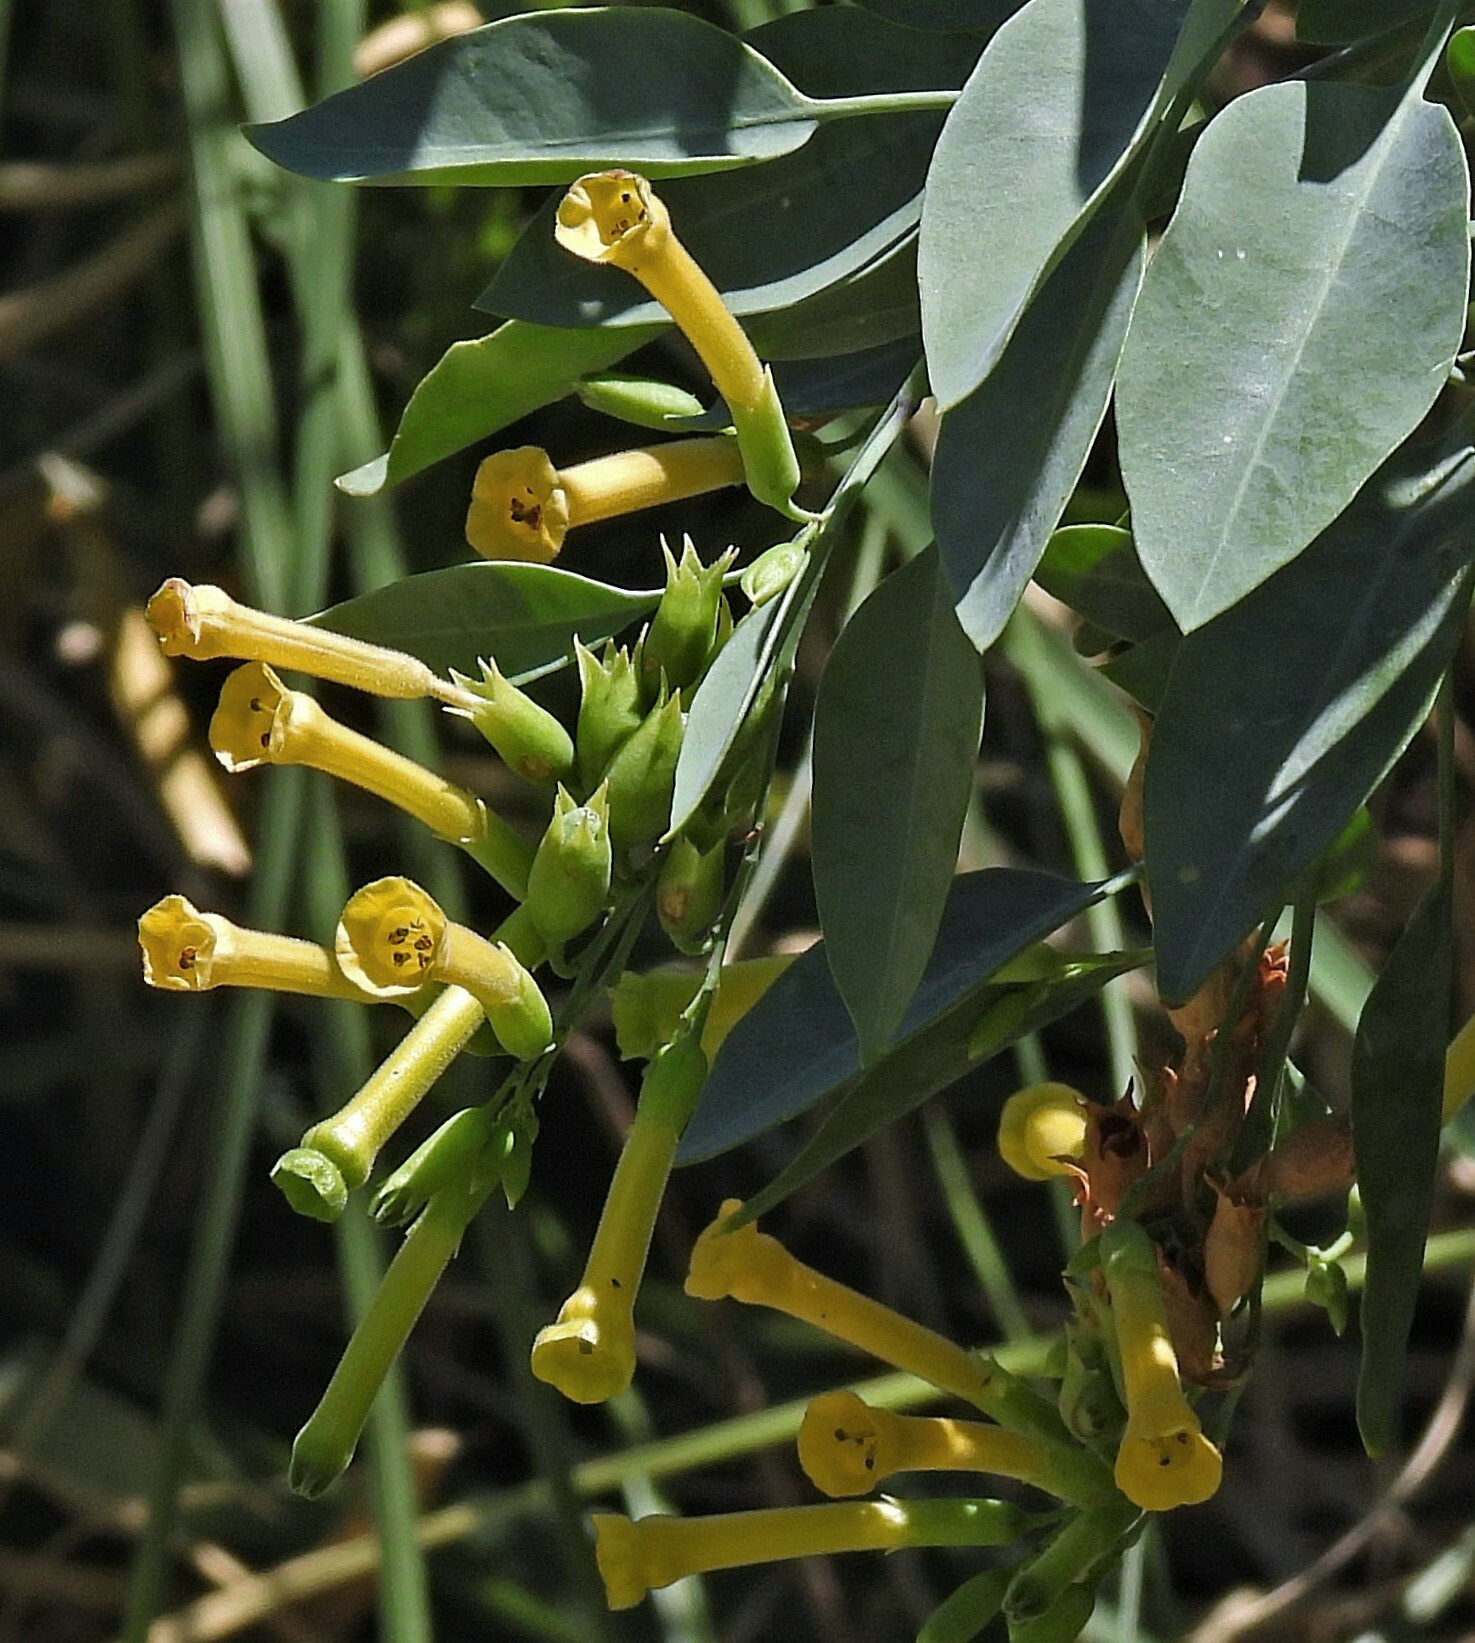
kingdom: Plantae
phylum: Tracheophyta
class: Magnoliopsida
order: Solanales
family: Solanaceae
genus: Nicotiana
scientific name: Nicotiana glauca
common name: Tree tobacco
